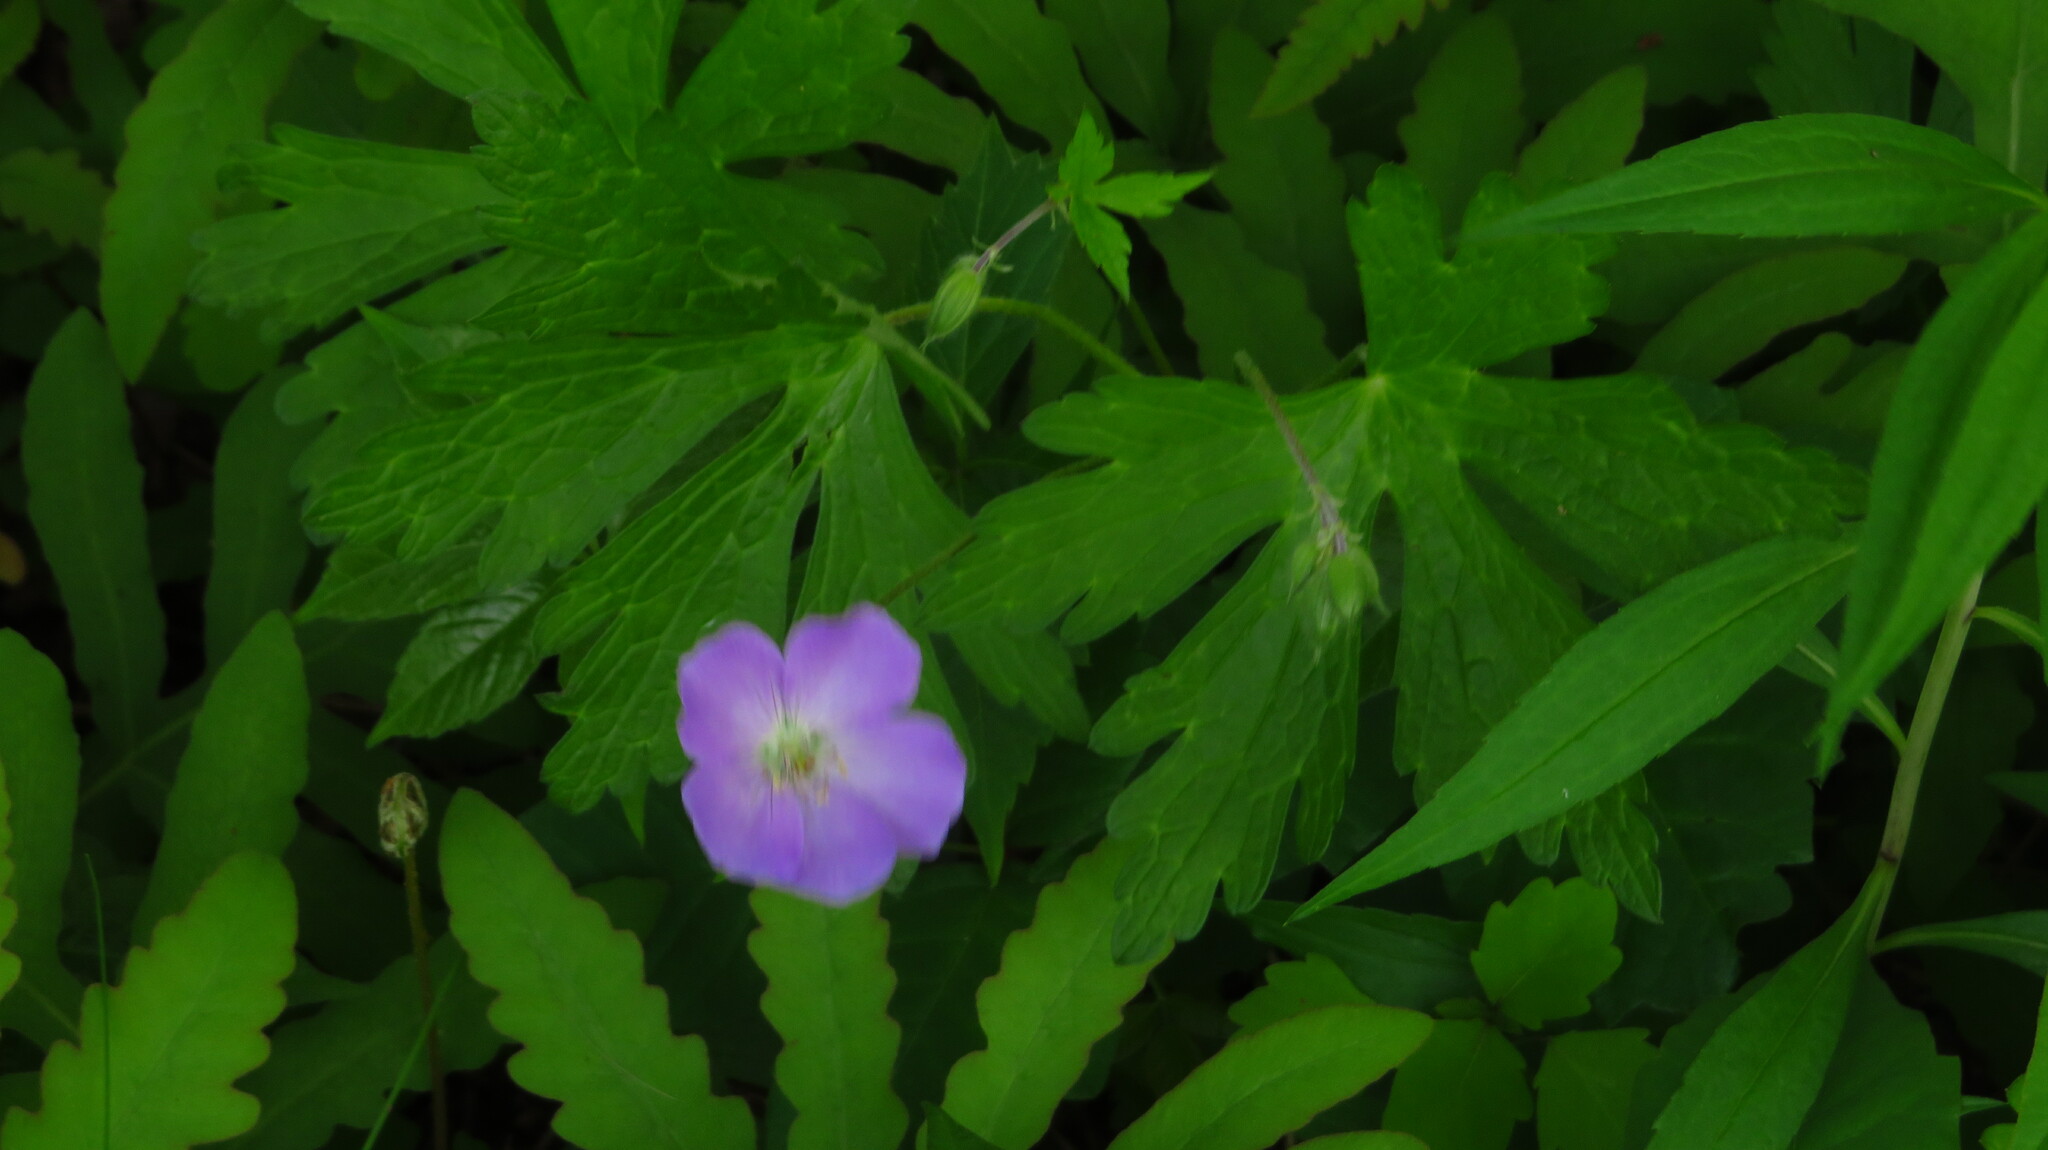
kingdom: Plantae
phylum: Tracheophyta
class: Magnoliopsida
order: Geraniales
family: Geraniaceae
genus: Geranium
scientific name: Geranium maculatum
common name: Spotted geranium
